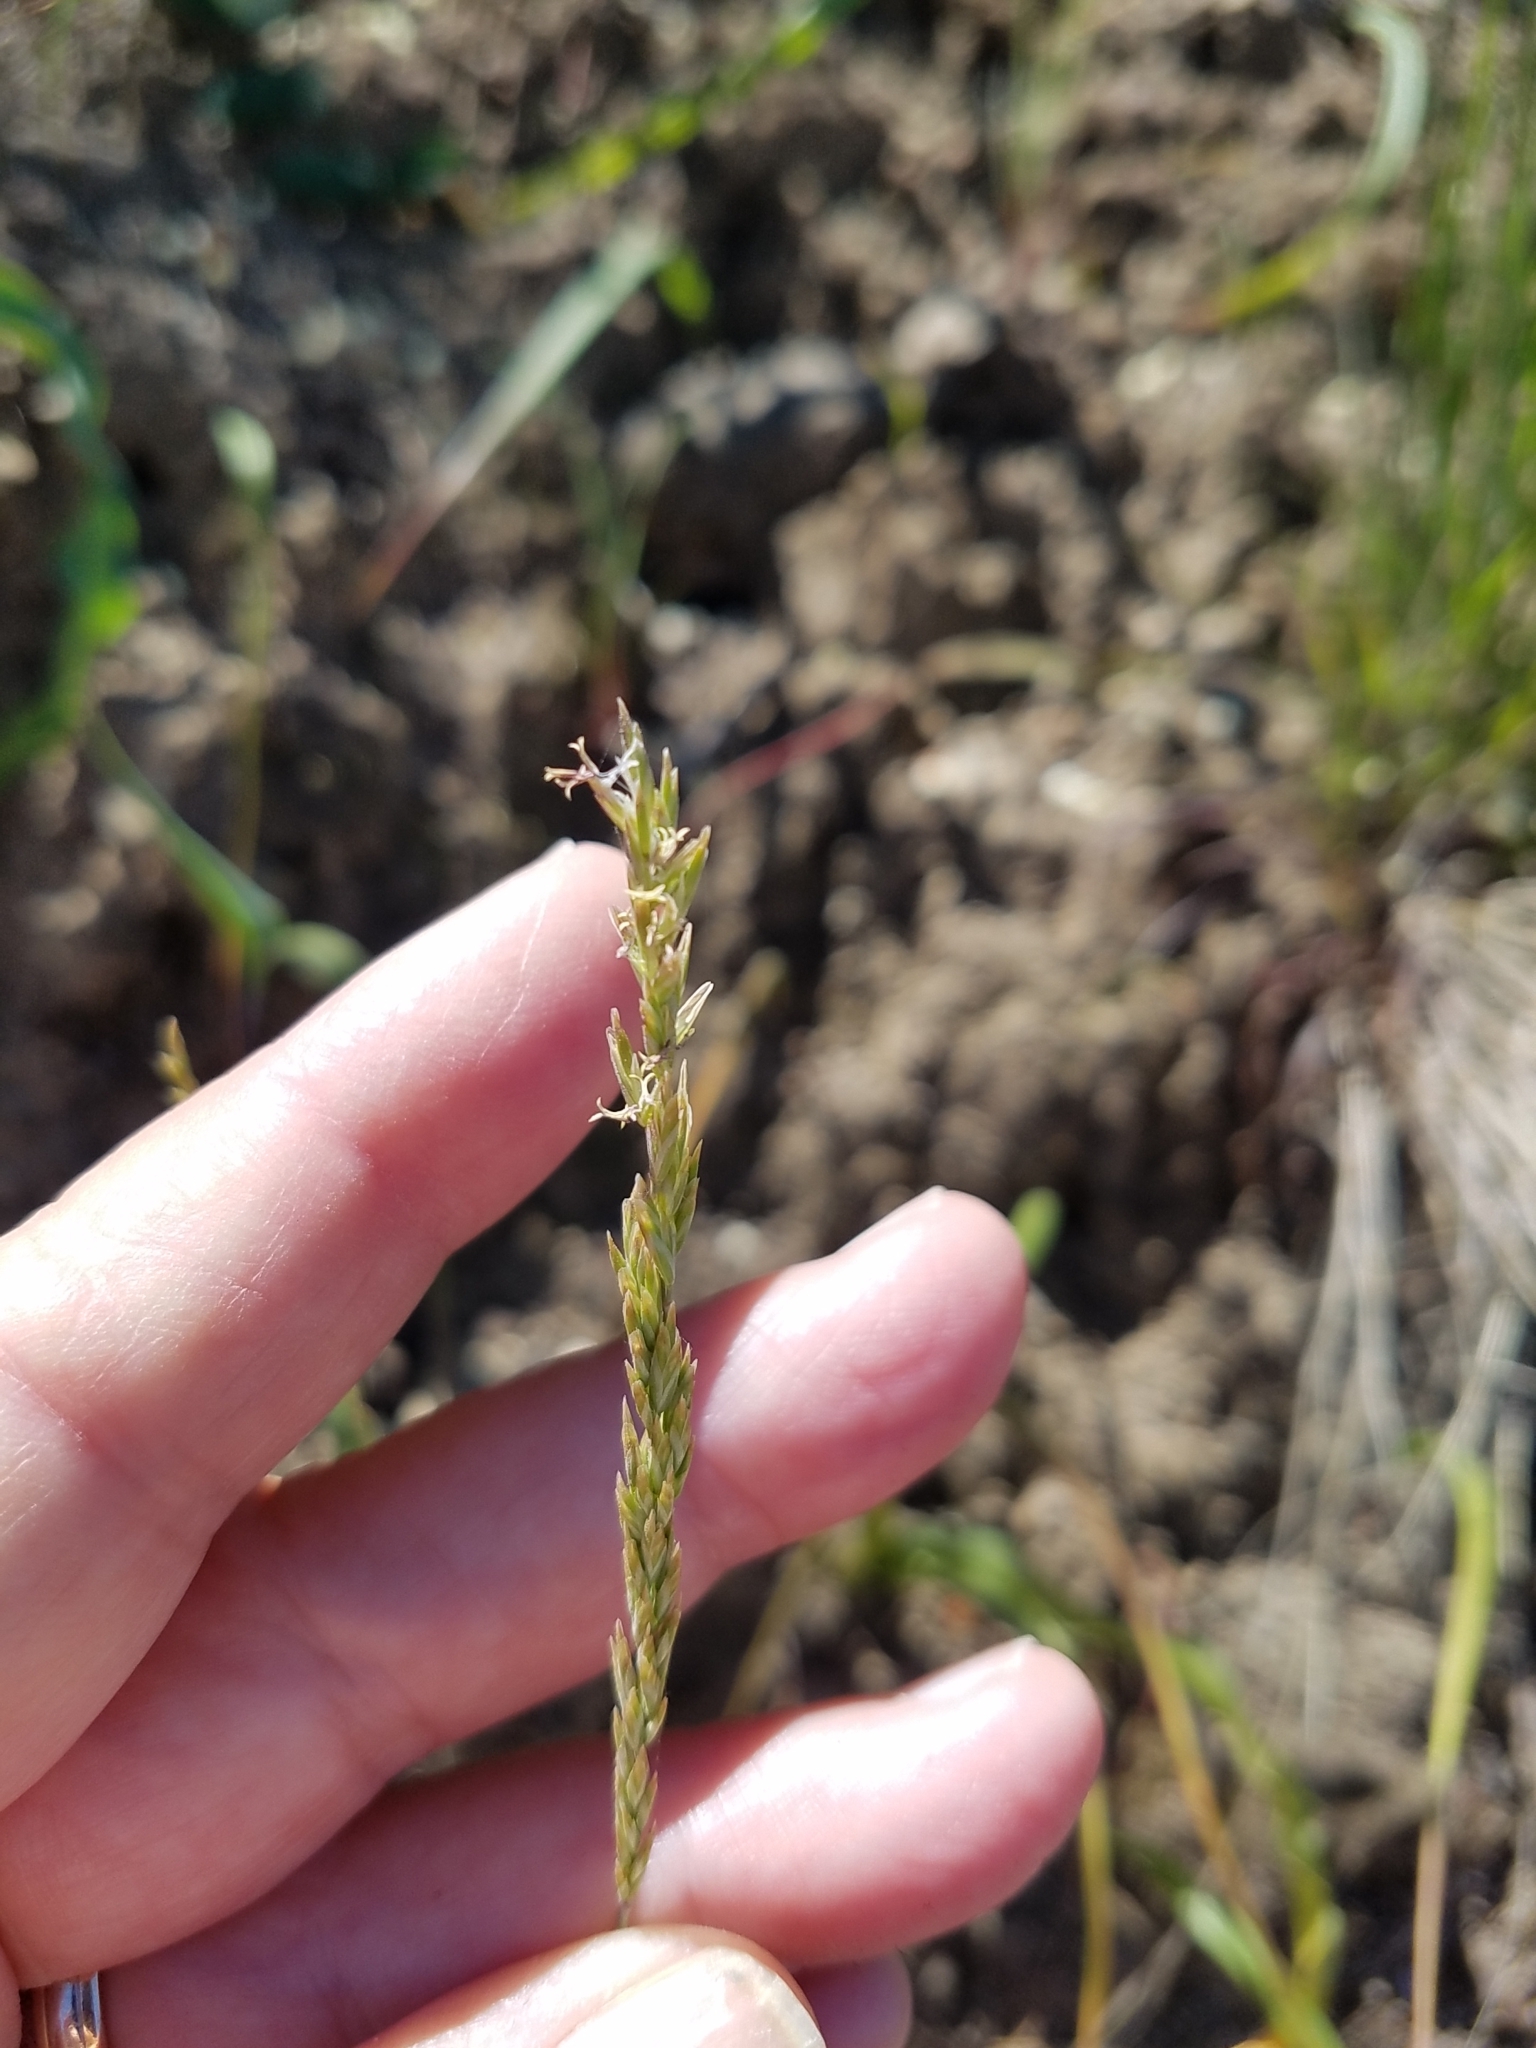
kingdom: Plantae
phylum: Tracheophyta
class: Liliopsida
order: Poales
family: Poaceae
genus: Poa
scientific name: Poa secunda
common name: Sandberg bluegrass
